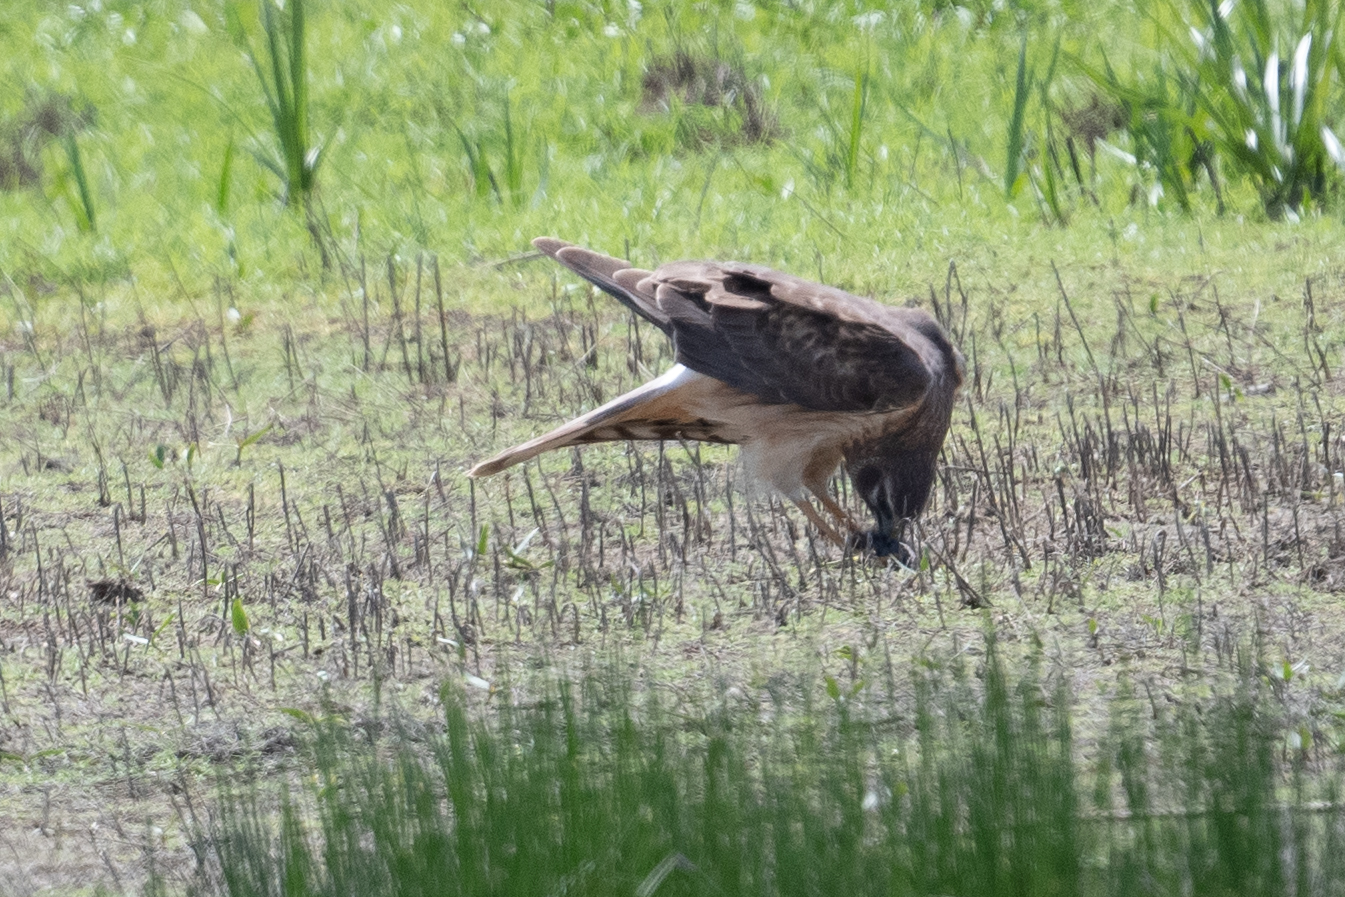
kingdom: Animalia
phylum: Chordata
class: Aves
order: Accipitriformes
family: Accipitridae
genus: Circus
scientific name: Circus cyaneus
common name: Hen harrier
